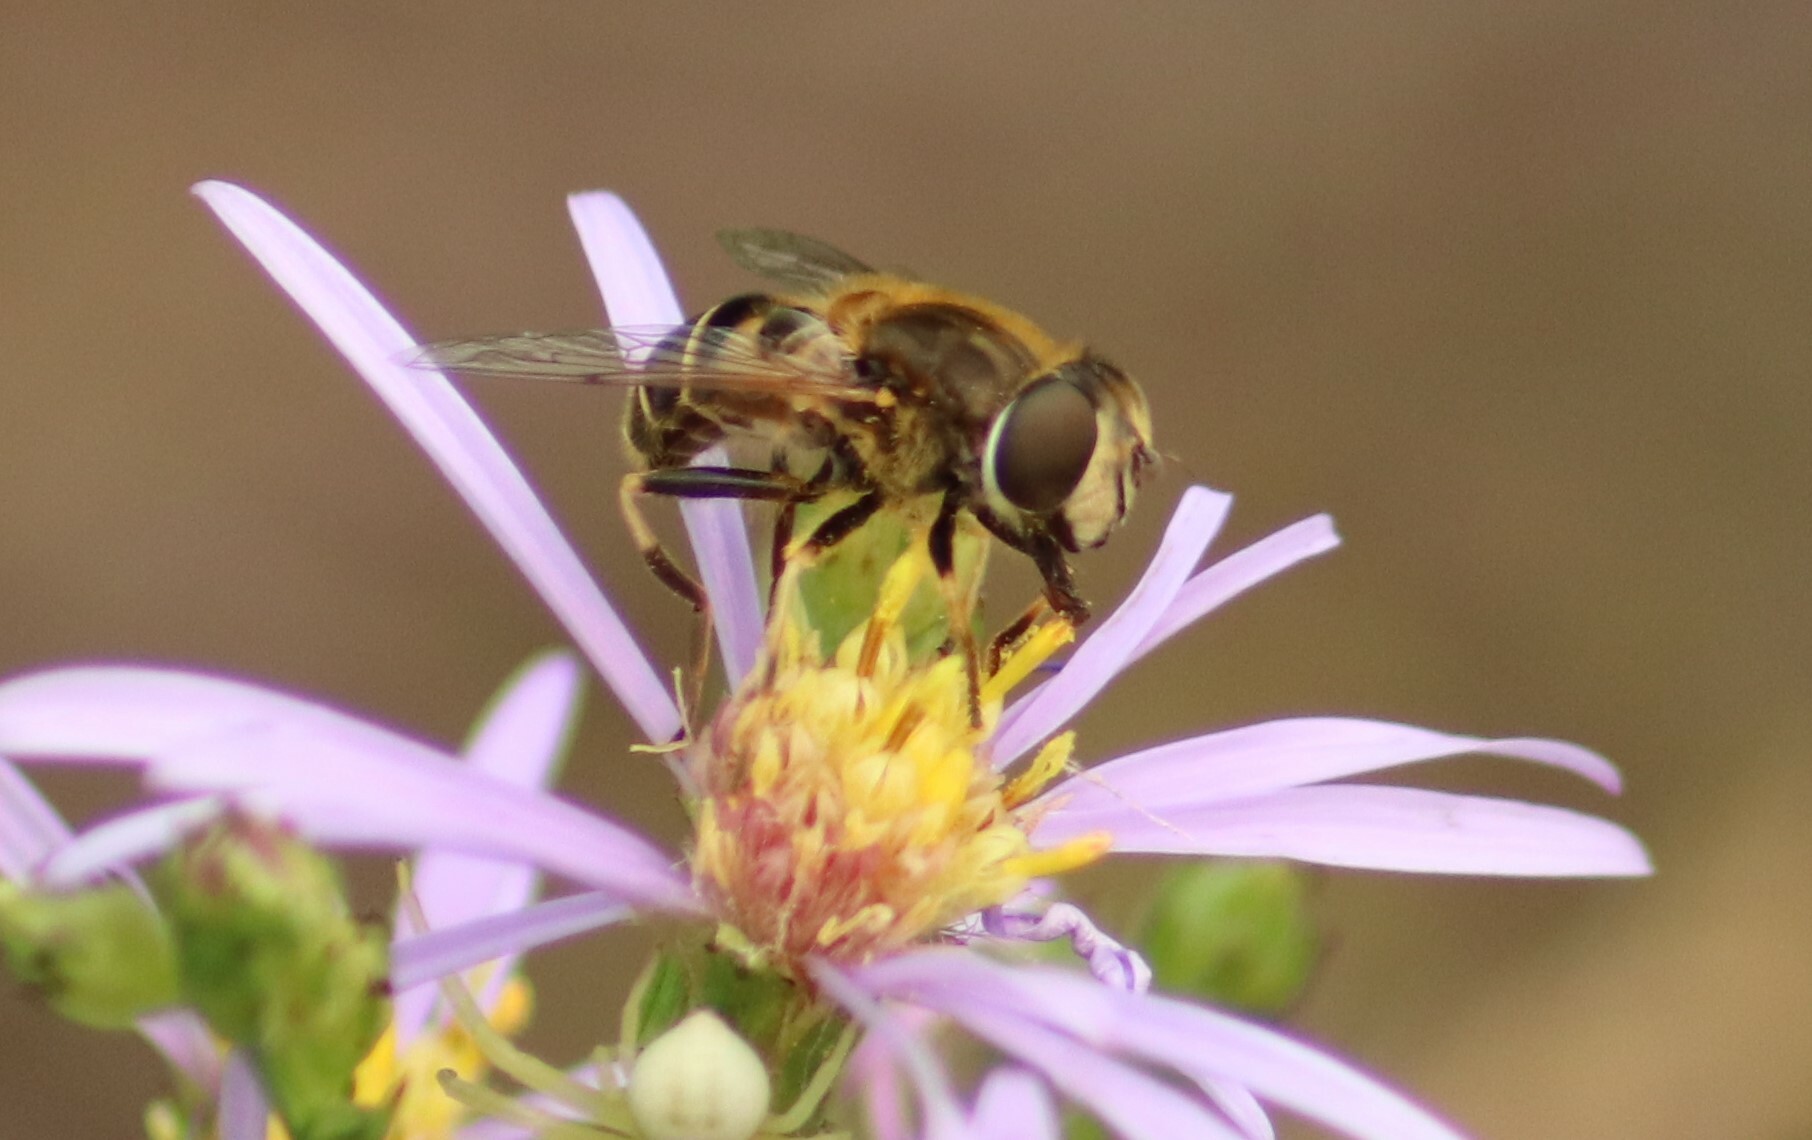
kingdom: Animalia
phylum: Arthropoda
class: Insecta
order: Diptera
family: Syrphidae
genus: Eristalis
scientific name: Eristalis anthophorina
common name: Orange-spotted drone fly
